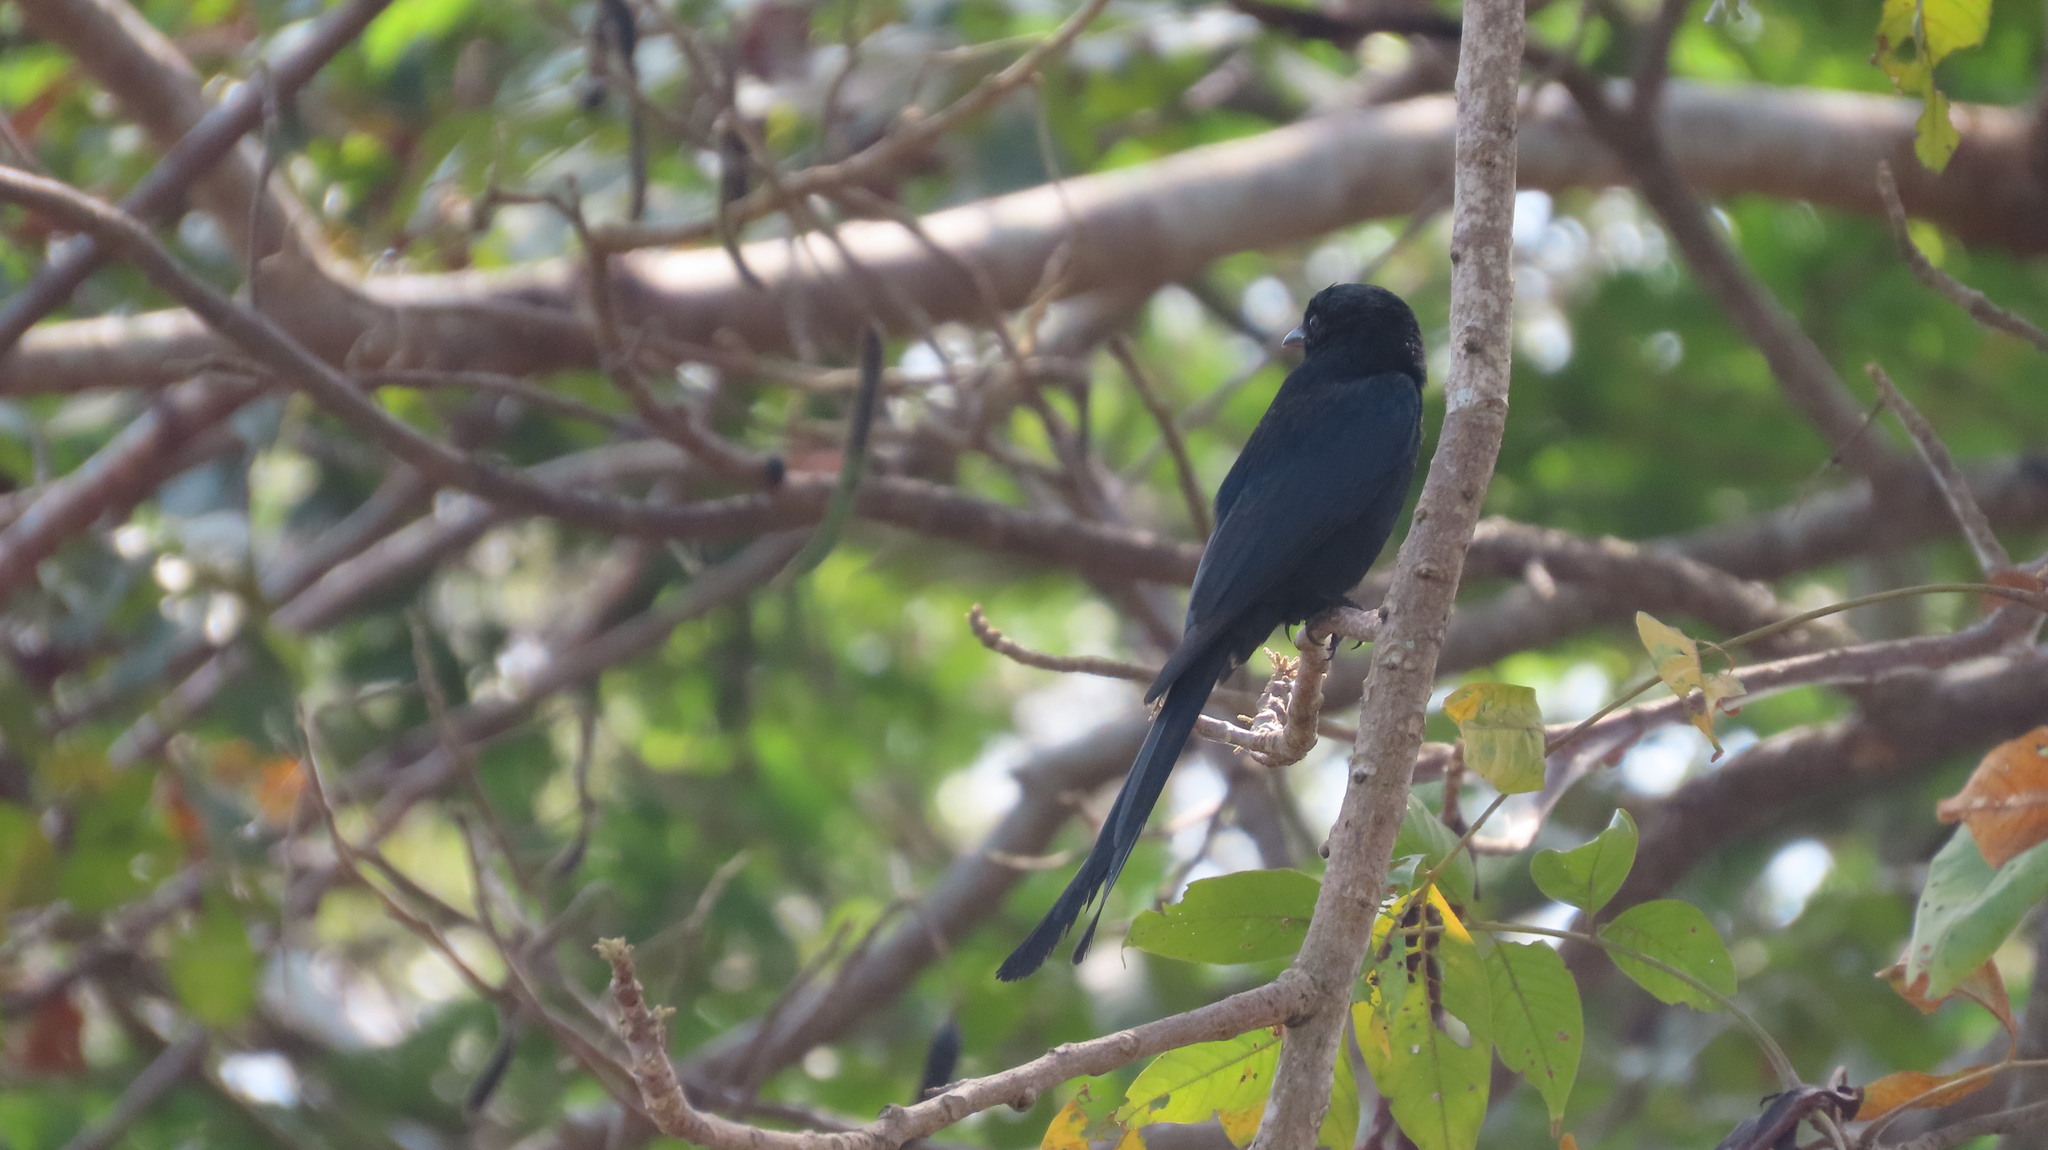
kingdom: Animalia
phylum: Chordata
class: Aves
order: Passeriformes
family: Dicruridae
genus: Dicrurus
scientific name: Dicrurus macrocercus
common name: Black drongo
